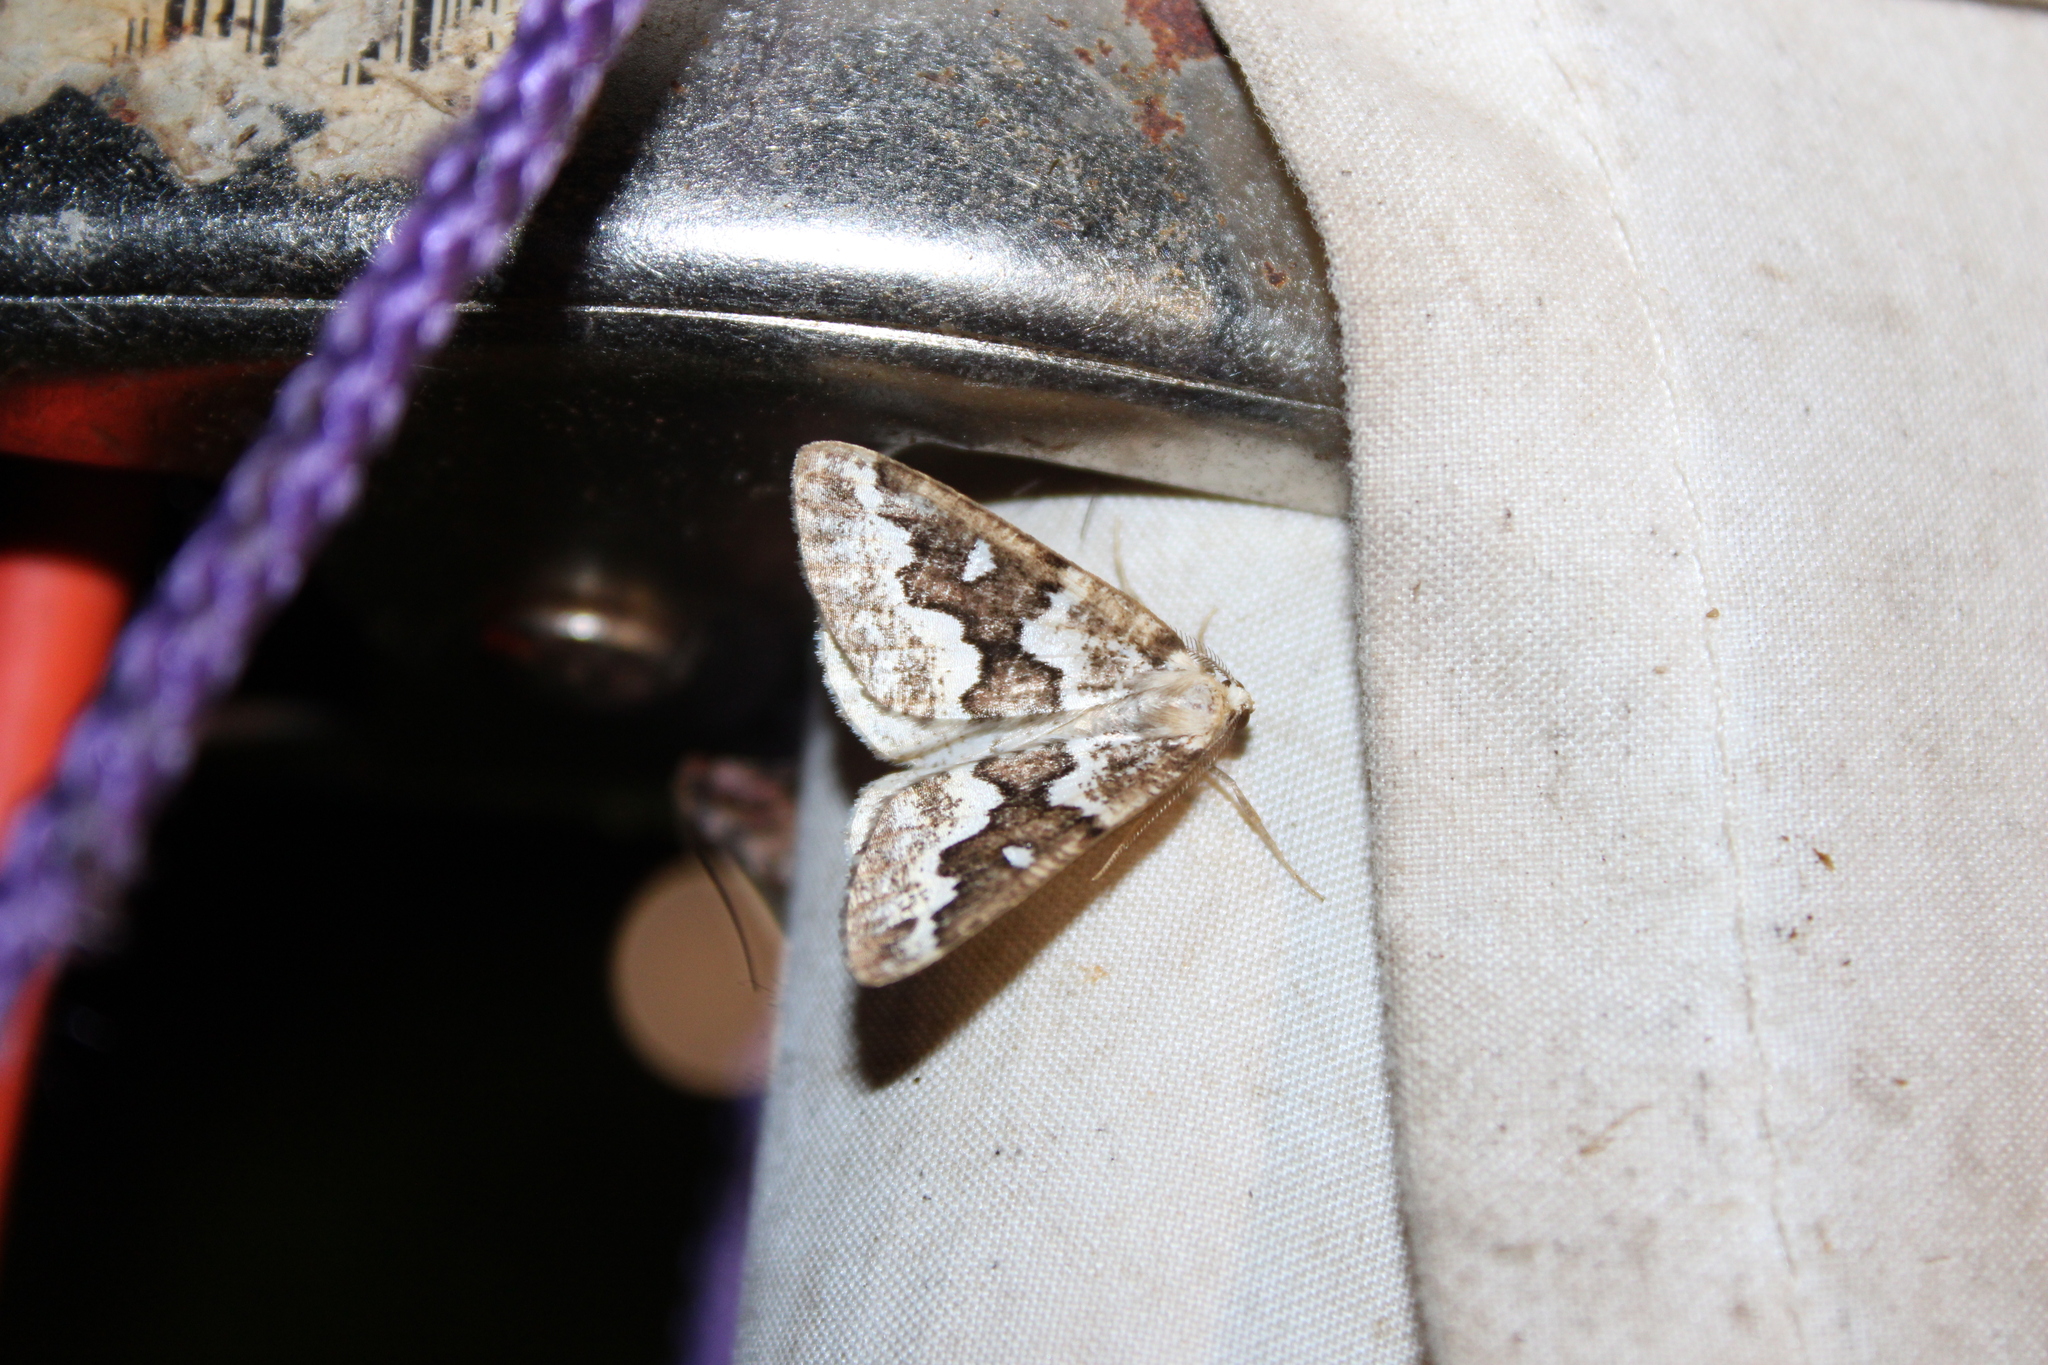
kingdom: Animalia
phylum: Arthropoda
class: Insecta
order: Lepidoptera
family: Geometridae
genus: Caripeta
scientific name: Caripeta divisata
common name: Gray spruce looper
